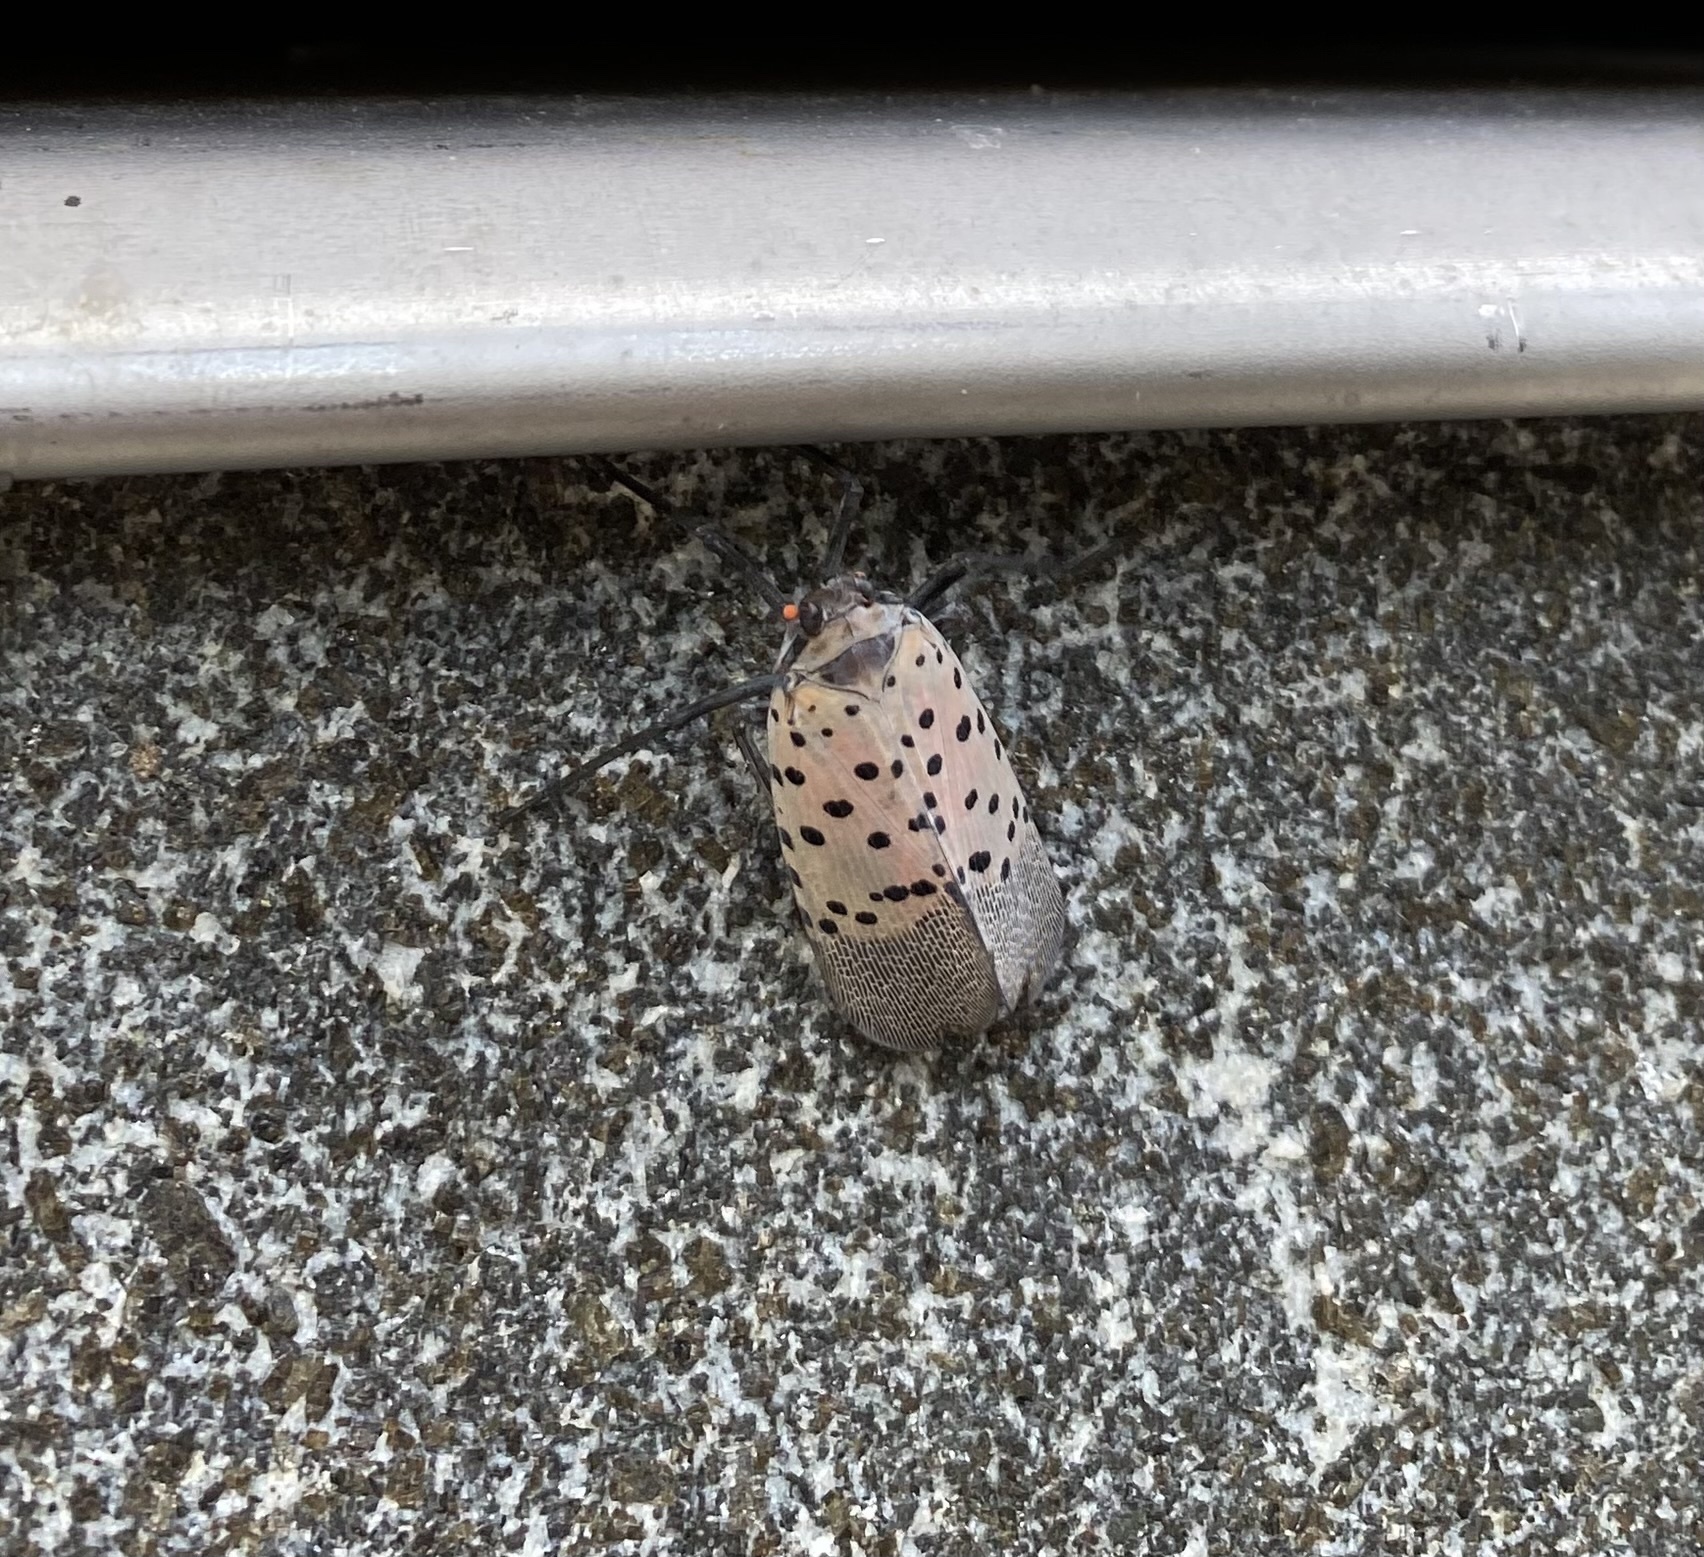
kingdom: Animalia
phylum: Arthropoda
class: Insecta
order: Hemiptera
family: Fulgoridae
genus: Lycorma
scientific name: Lycorma delicatula
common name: Spotted lanternfly
